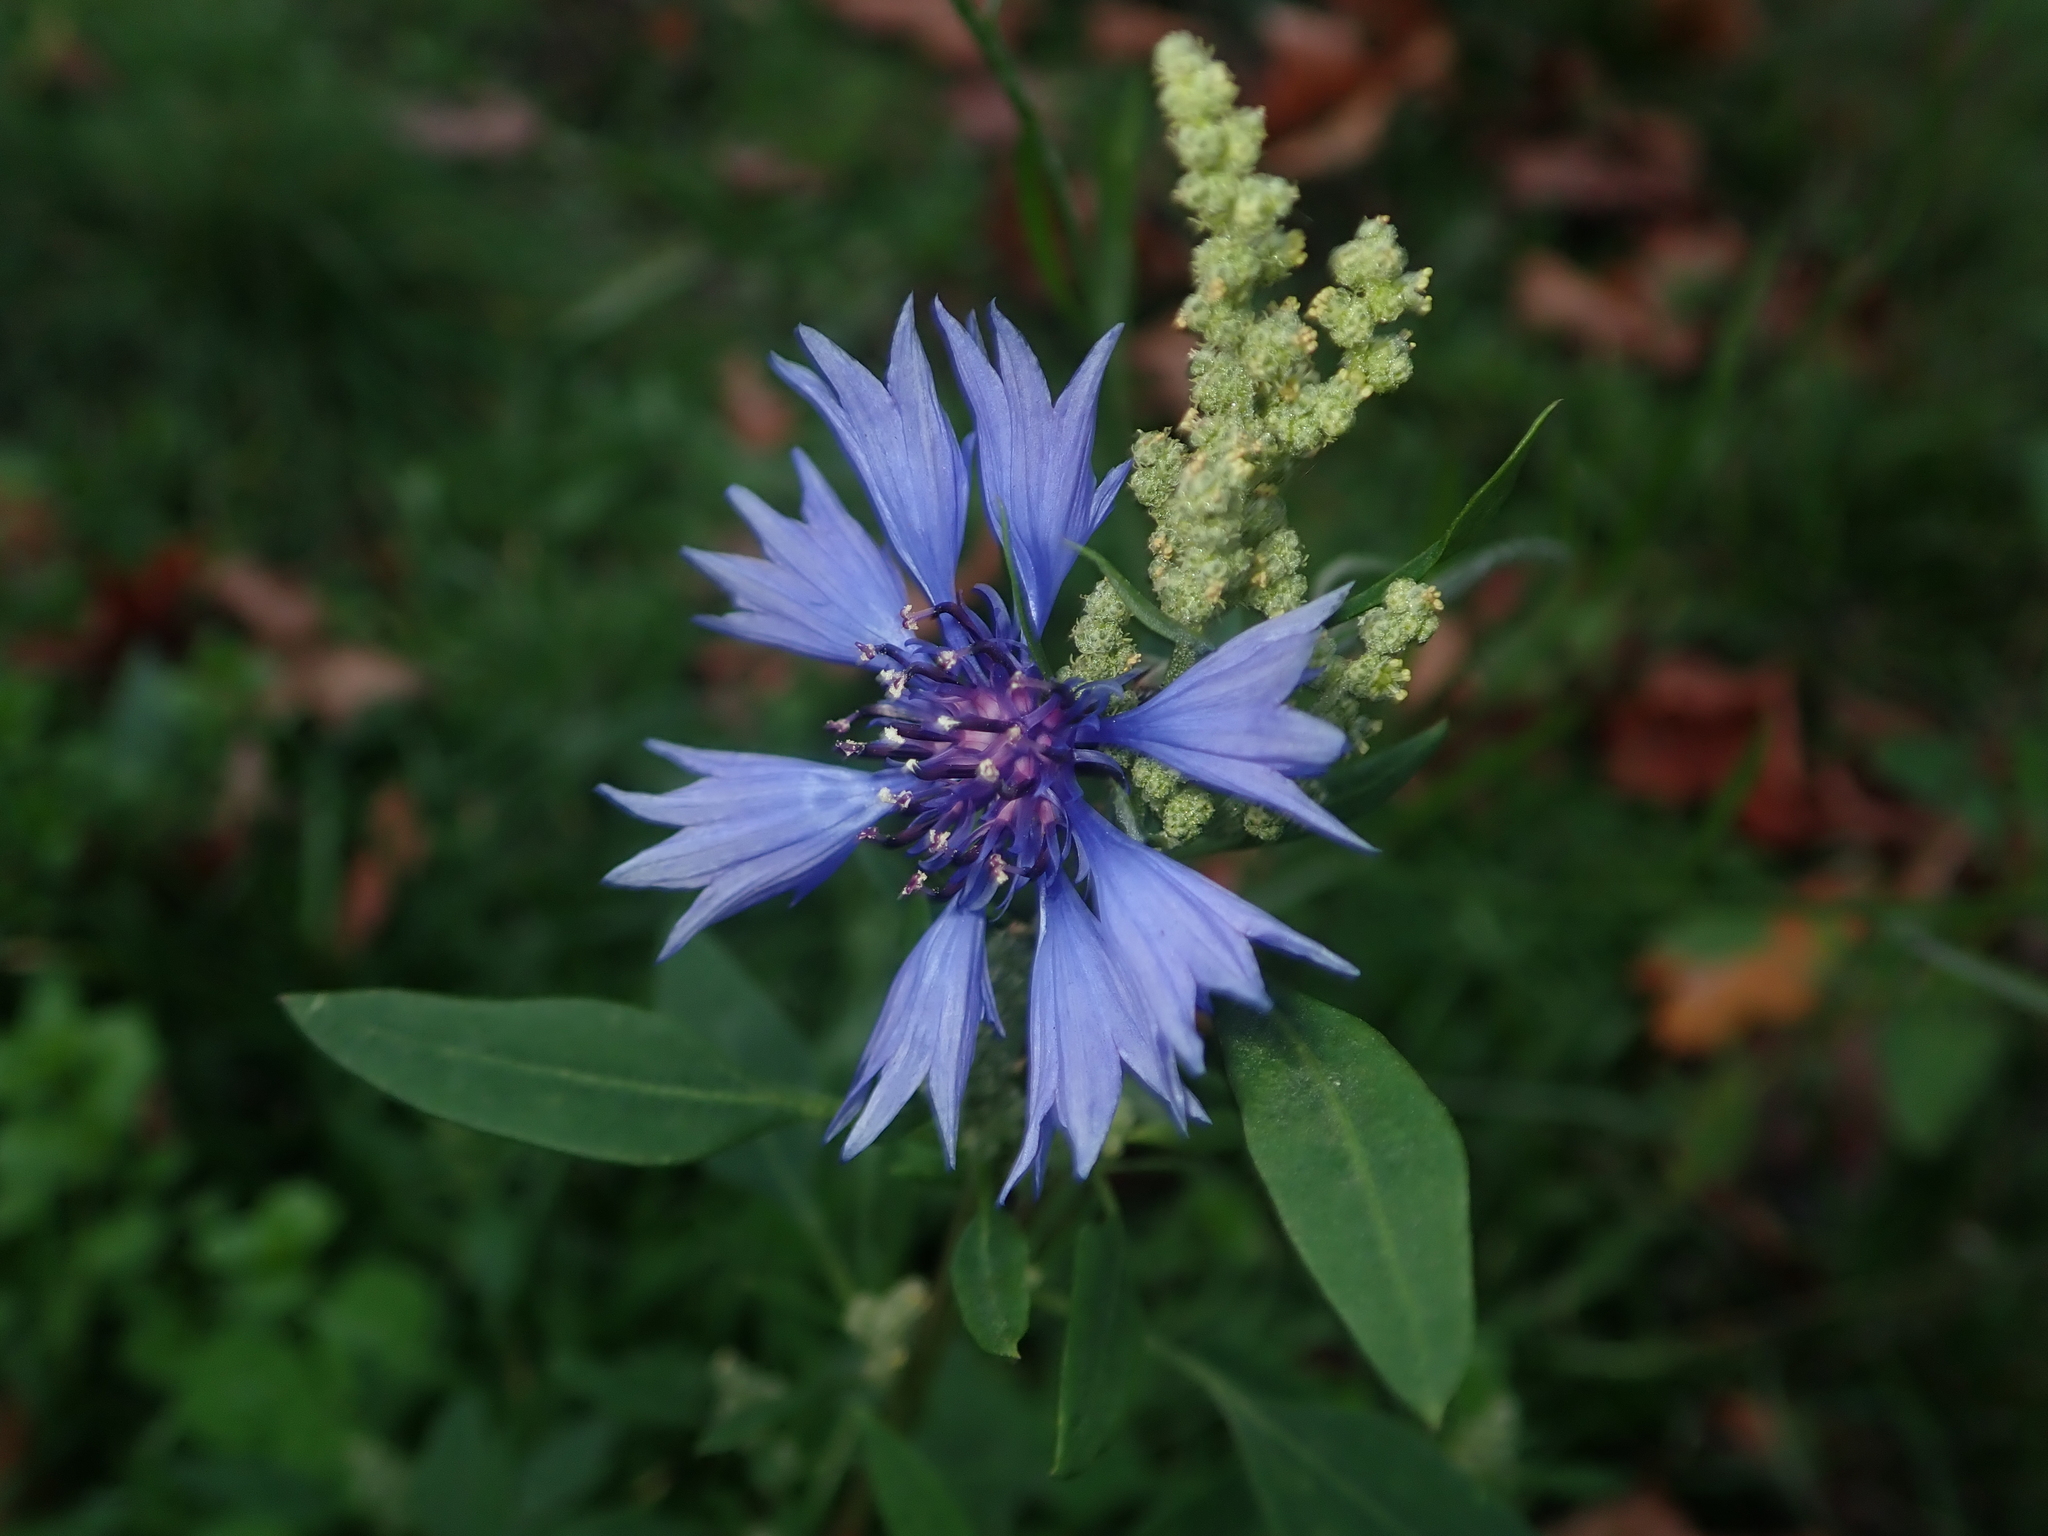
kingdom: Plantae
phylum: Tracheophyta
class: Magnoliopsida
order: Asterales
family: Asteraceae
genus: Centaurea
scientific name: Centaurea cyanus
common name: Cornflower
